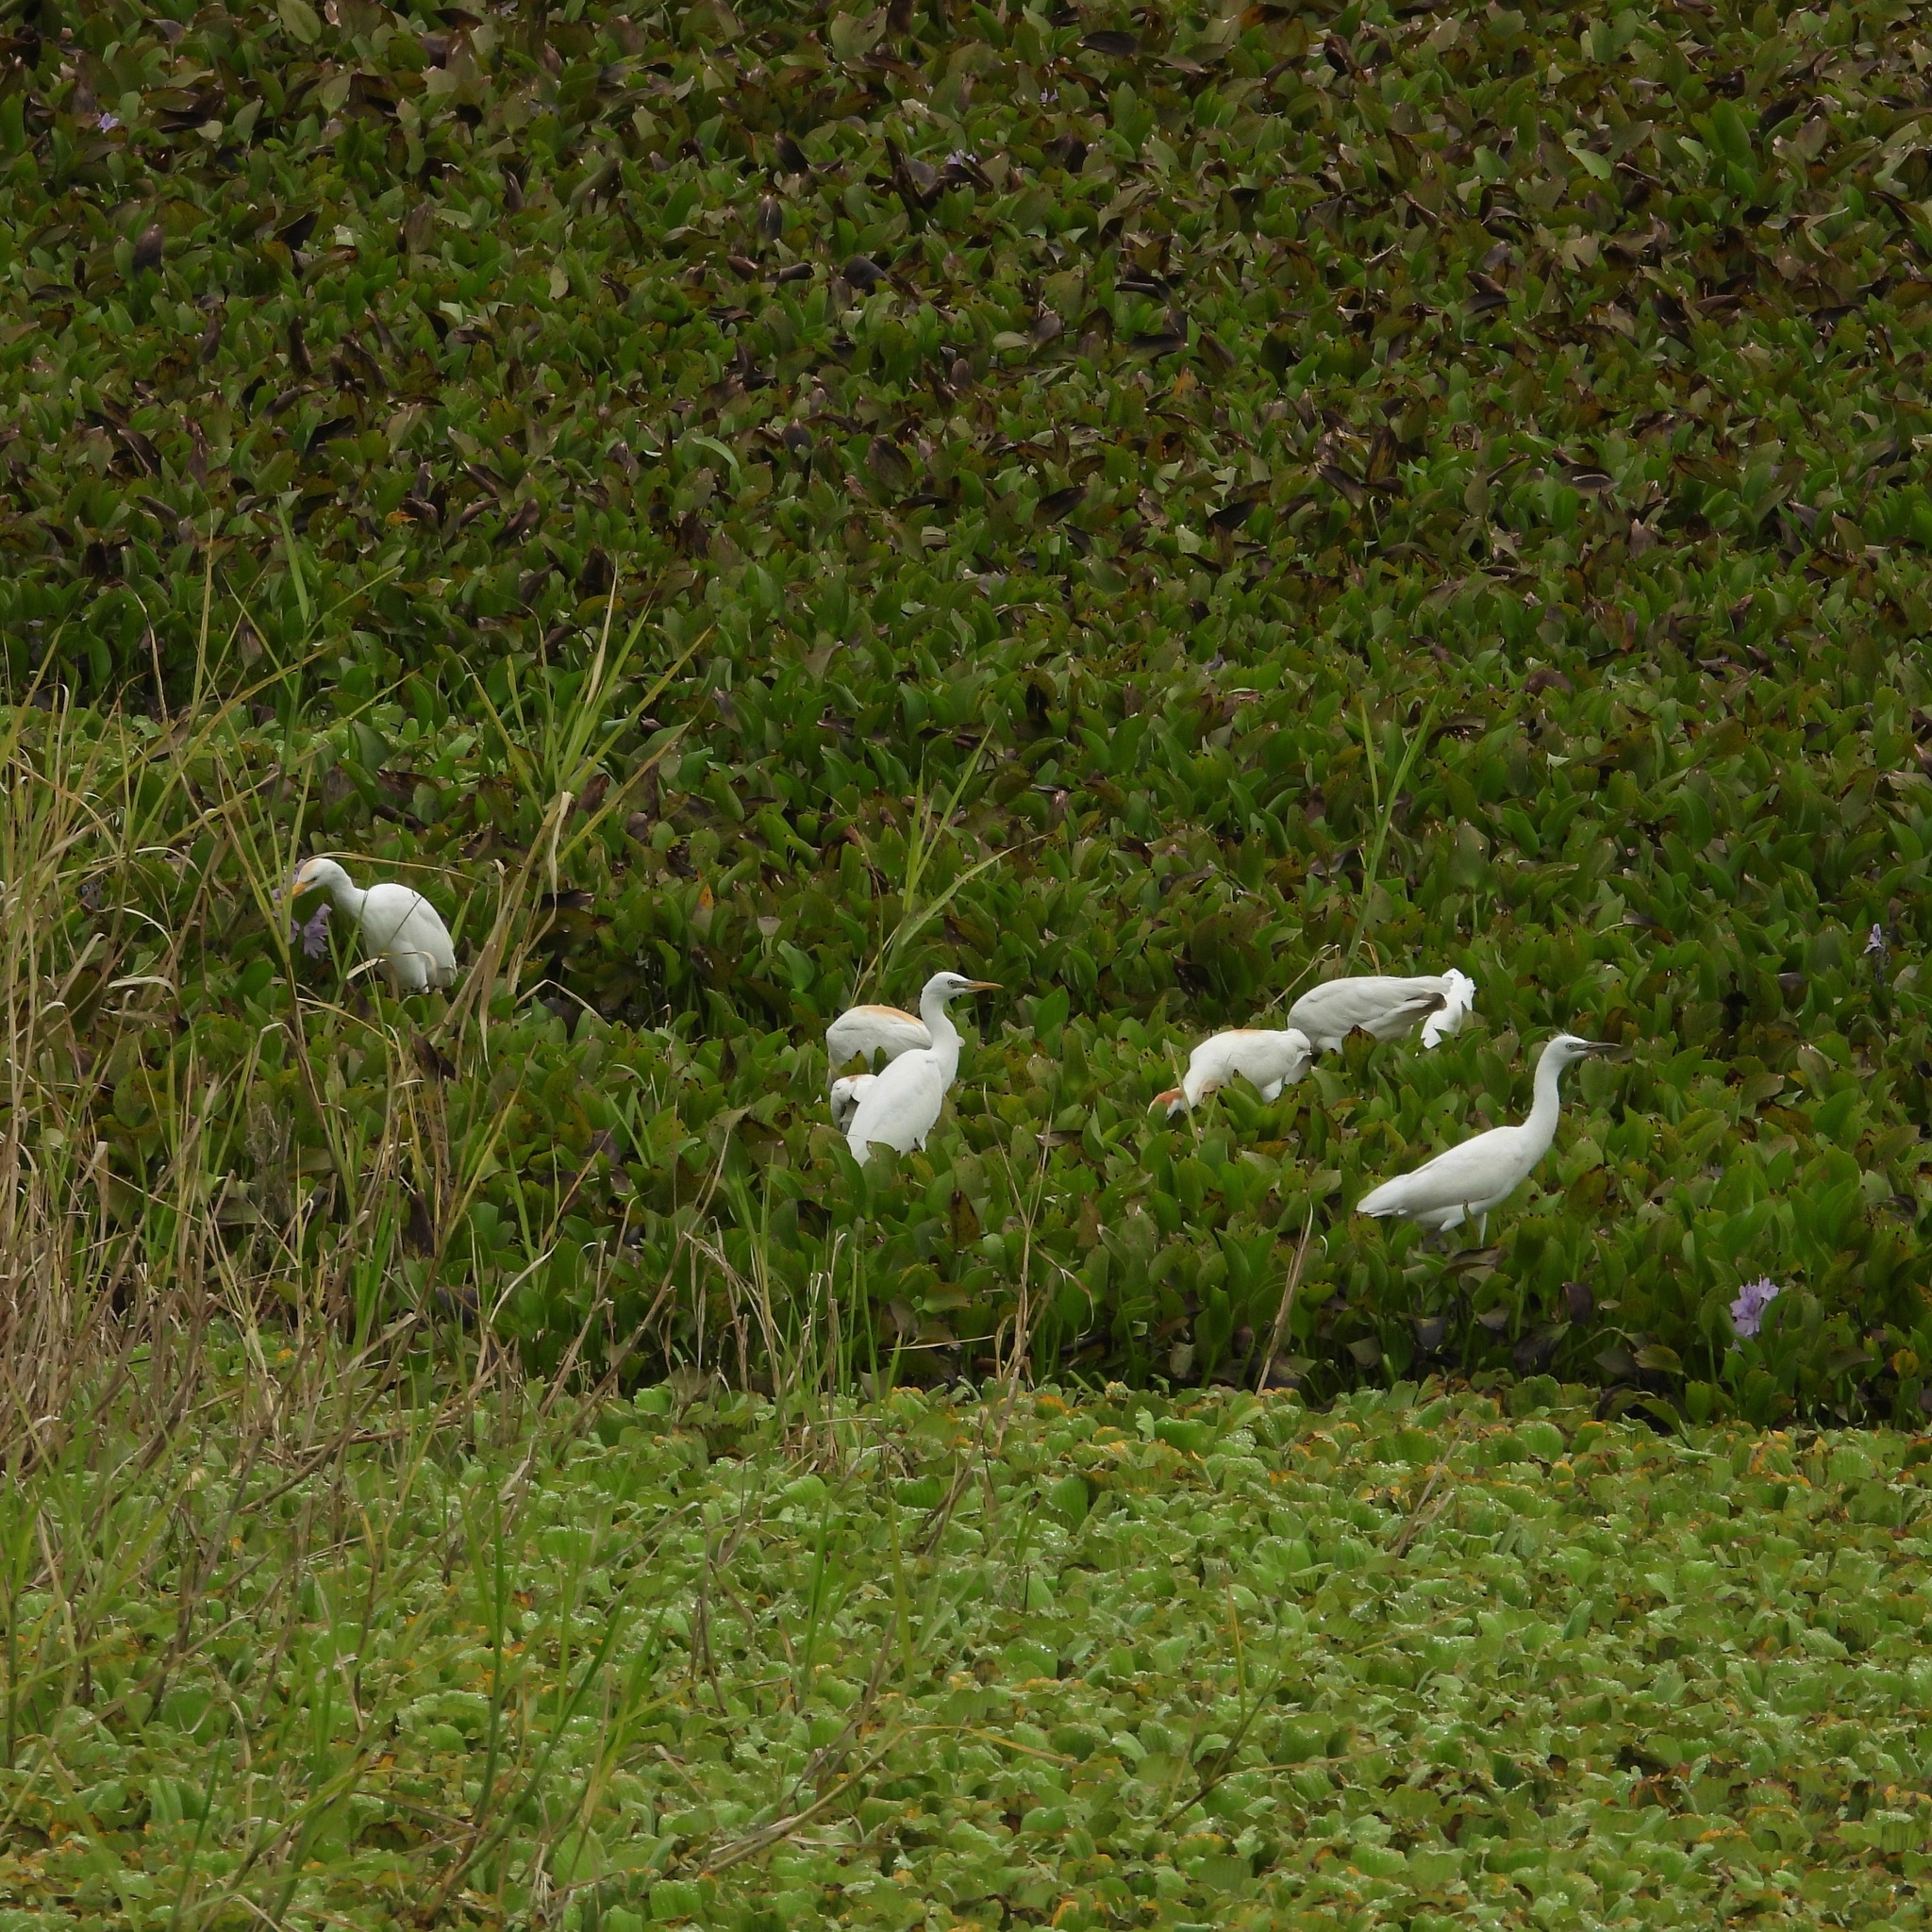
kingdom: Animalia
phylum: Chordata
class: Aves
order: Pelecaniformes
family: Ardeidae
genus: Egretta
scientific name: Egretta caerulea
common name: Little blue heron
